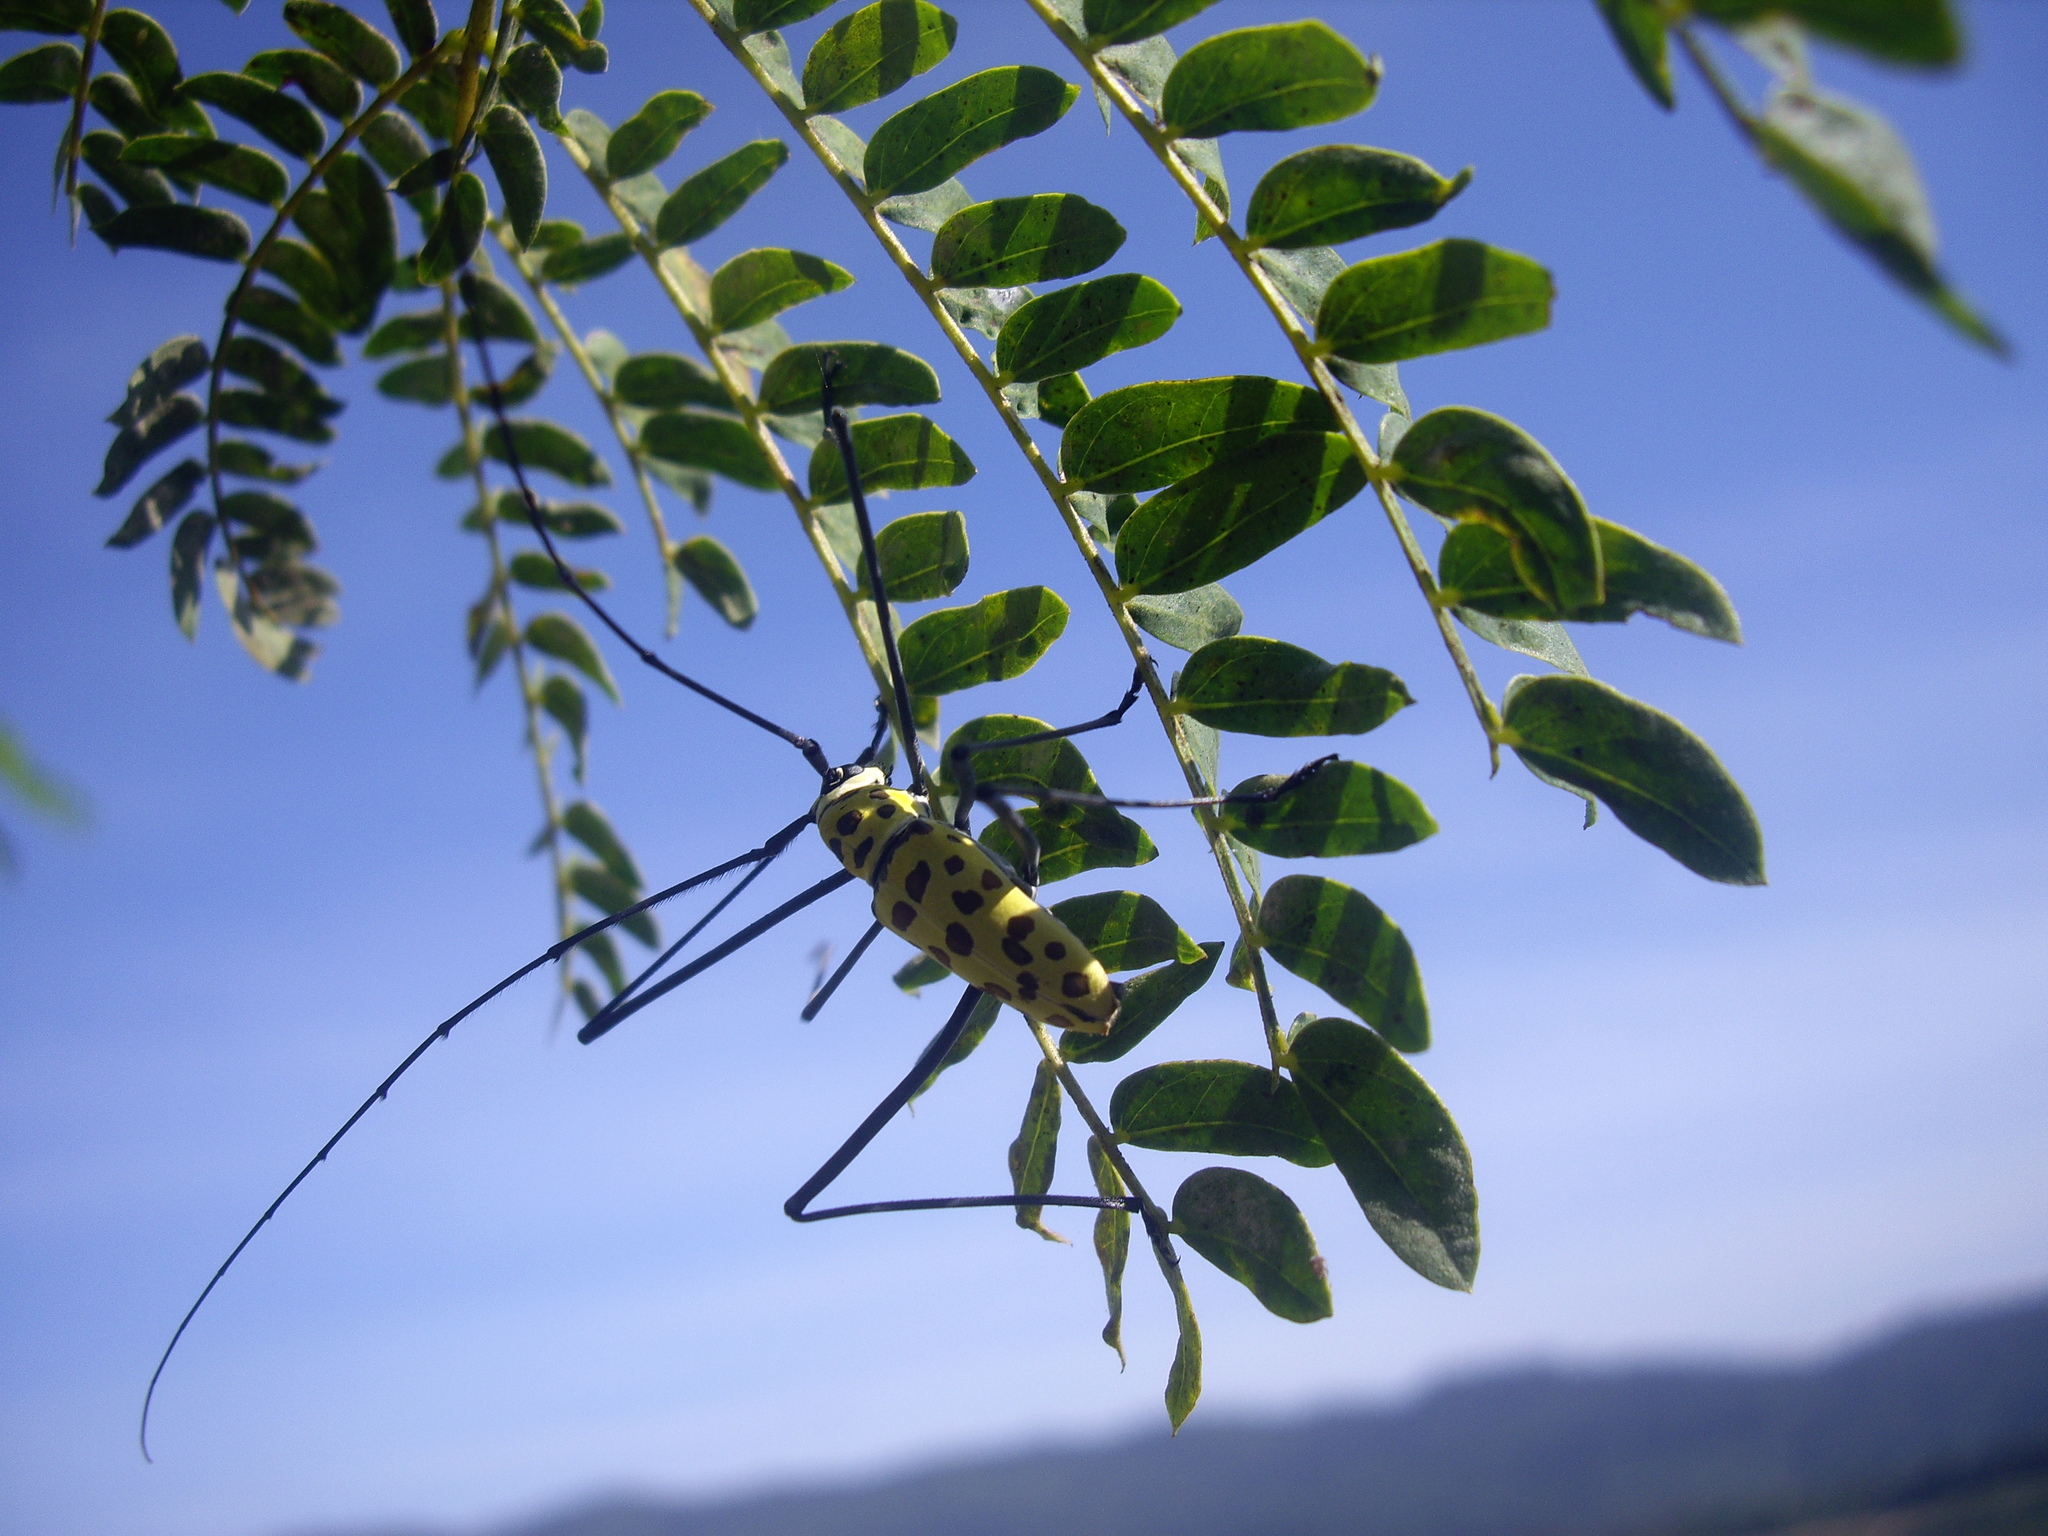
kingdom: Animalia
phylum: Arthropoda
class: Insecta
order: Coleoptera
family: Cerambycidae
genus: Gerania
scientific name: Gerania boscii
